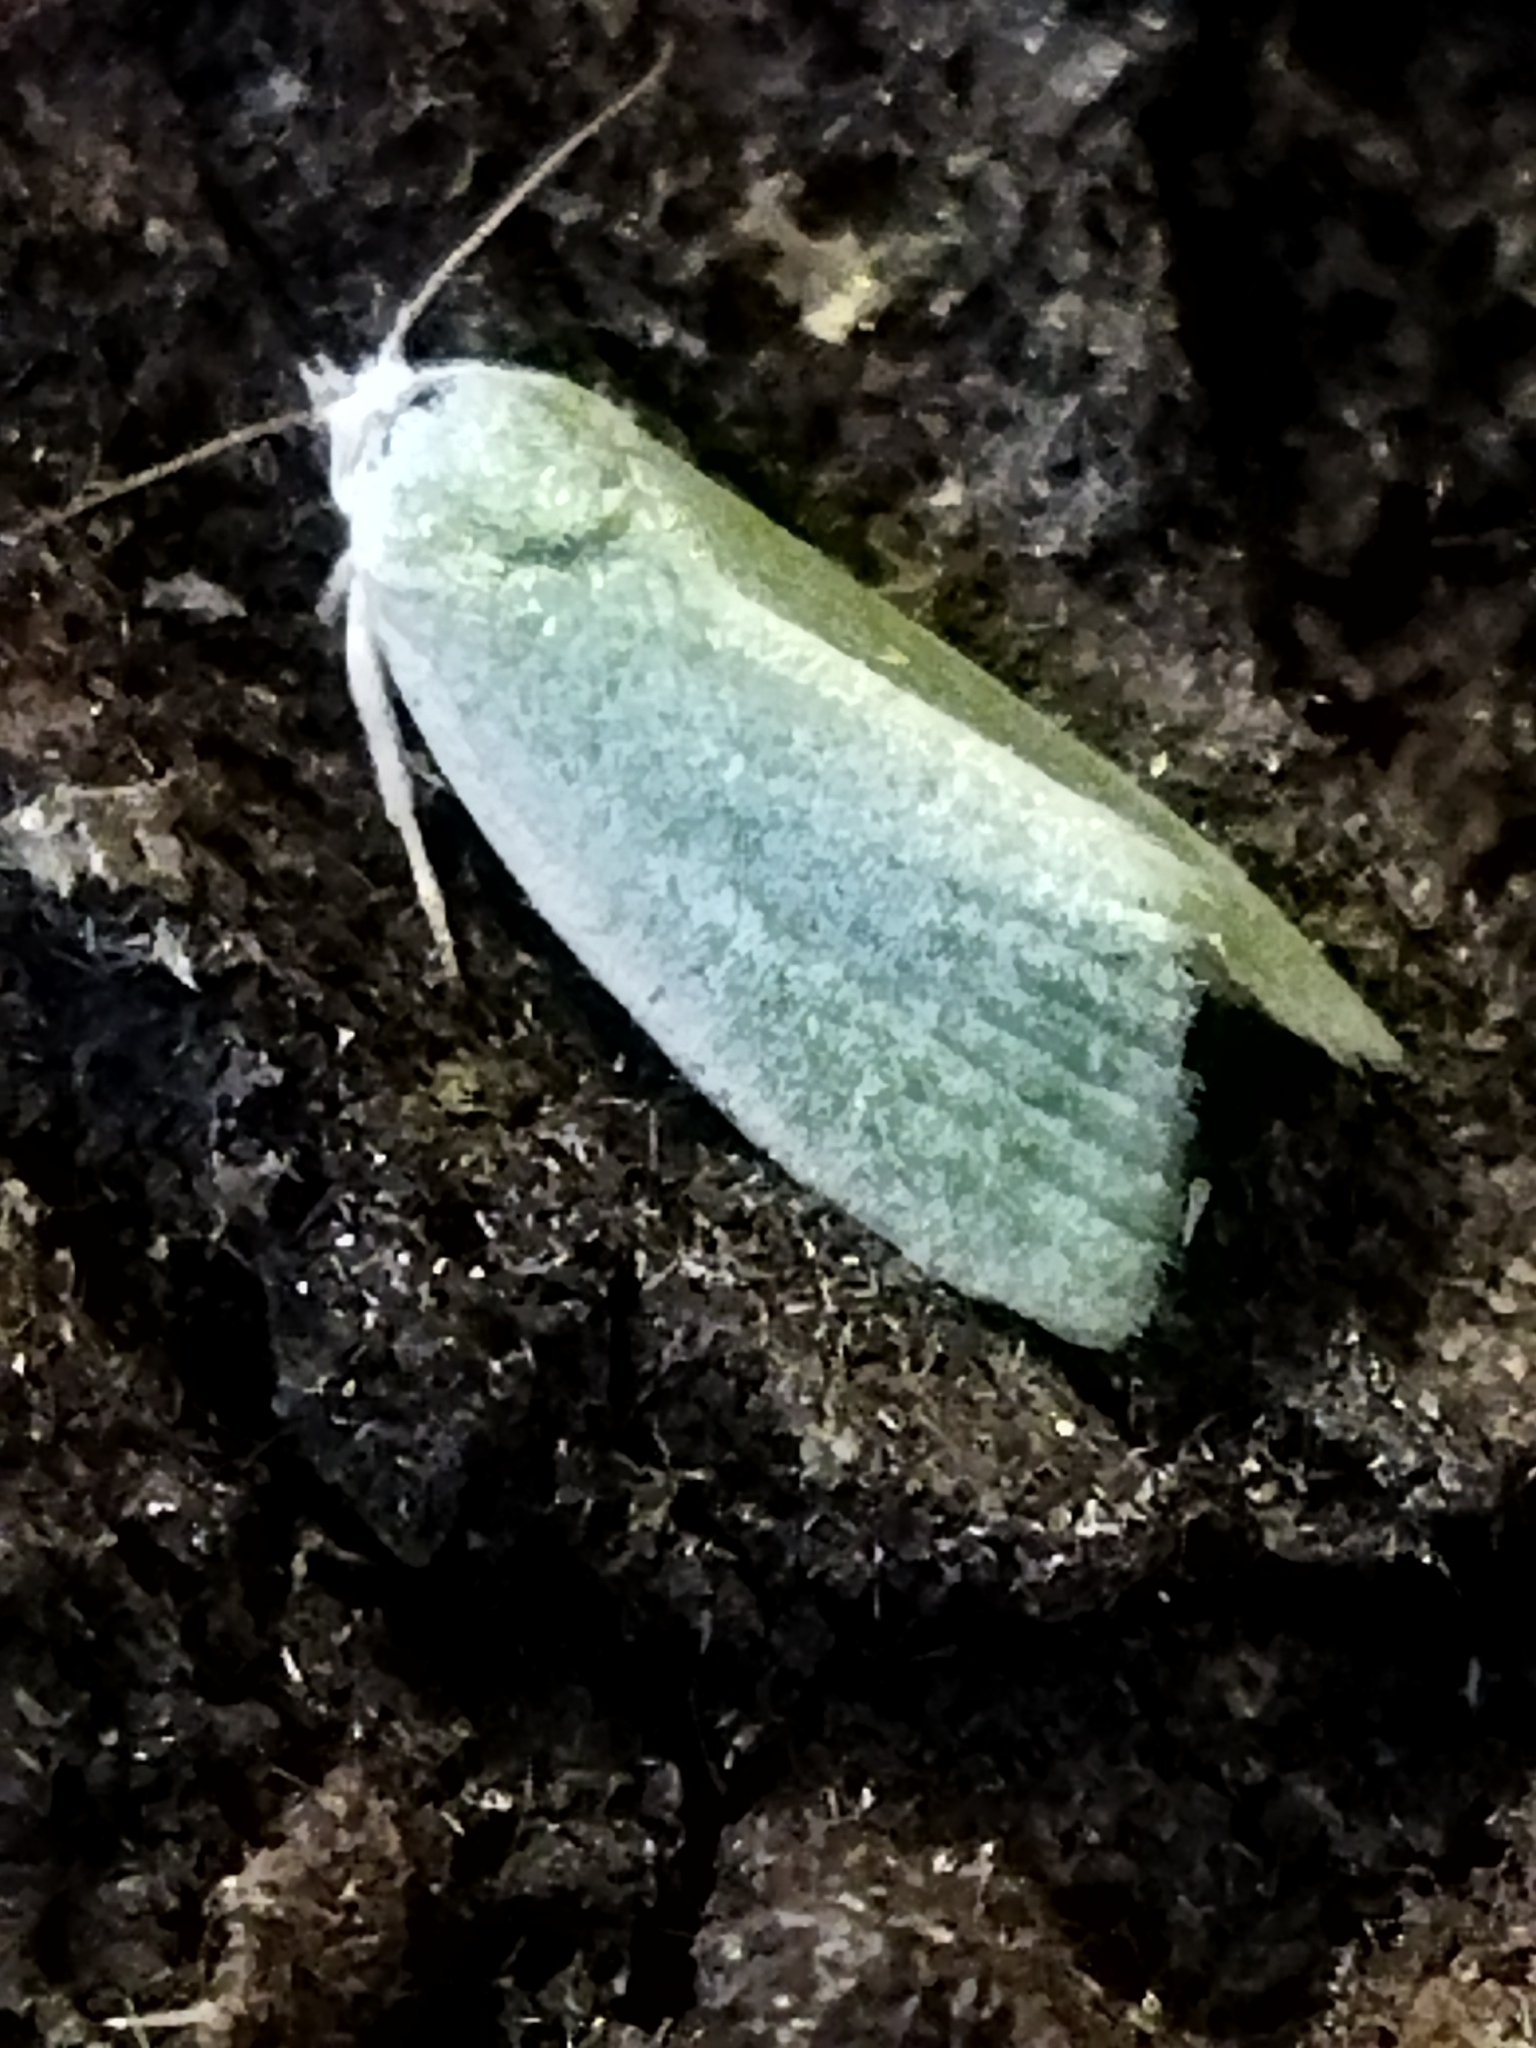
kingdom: Animalia
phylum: Arthropoda
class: Insecta
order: Lepidoptera
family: Nolidae
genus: Earias
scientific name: Earias clorana
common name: Cream-bordered green pea
